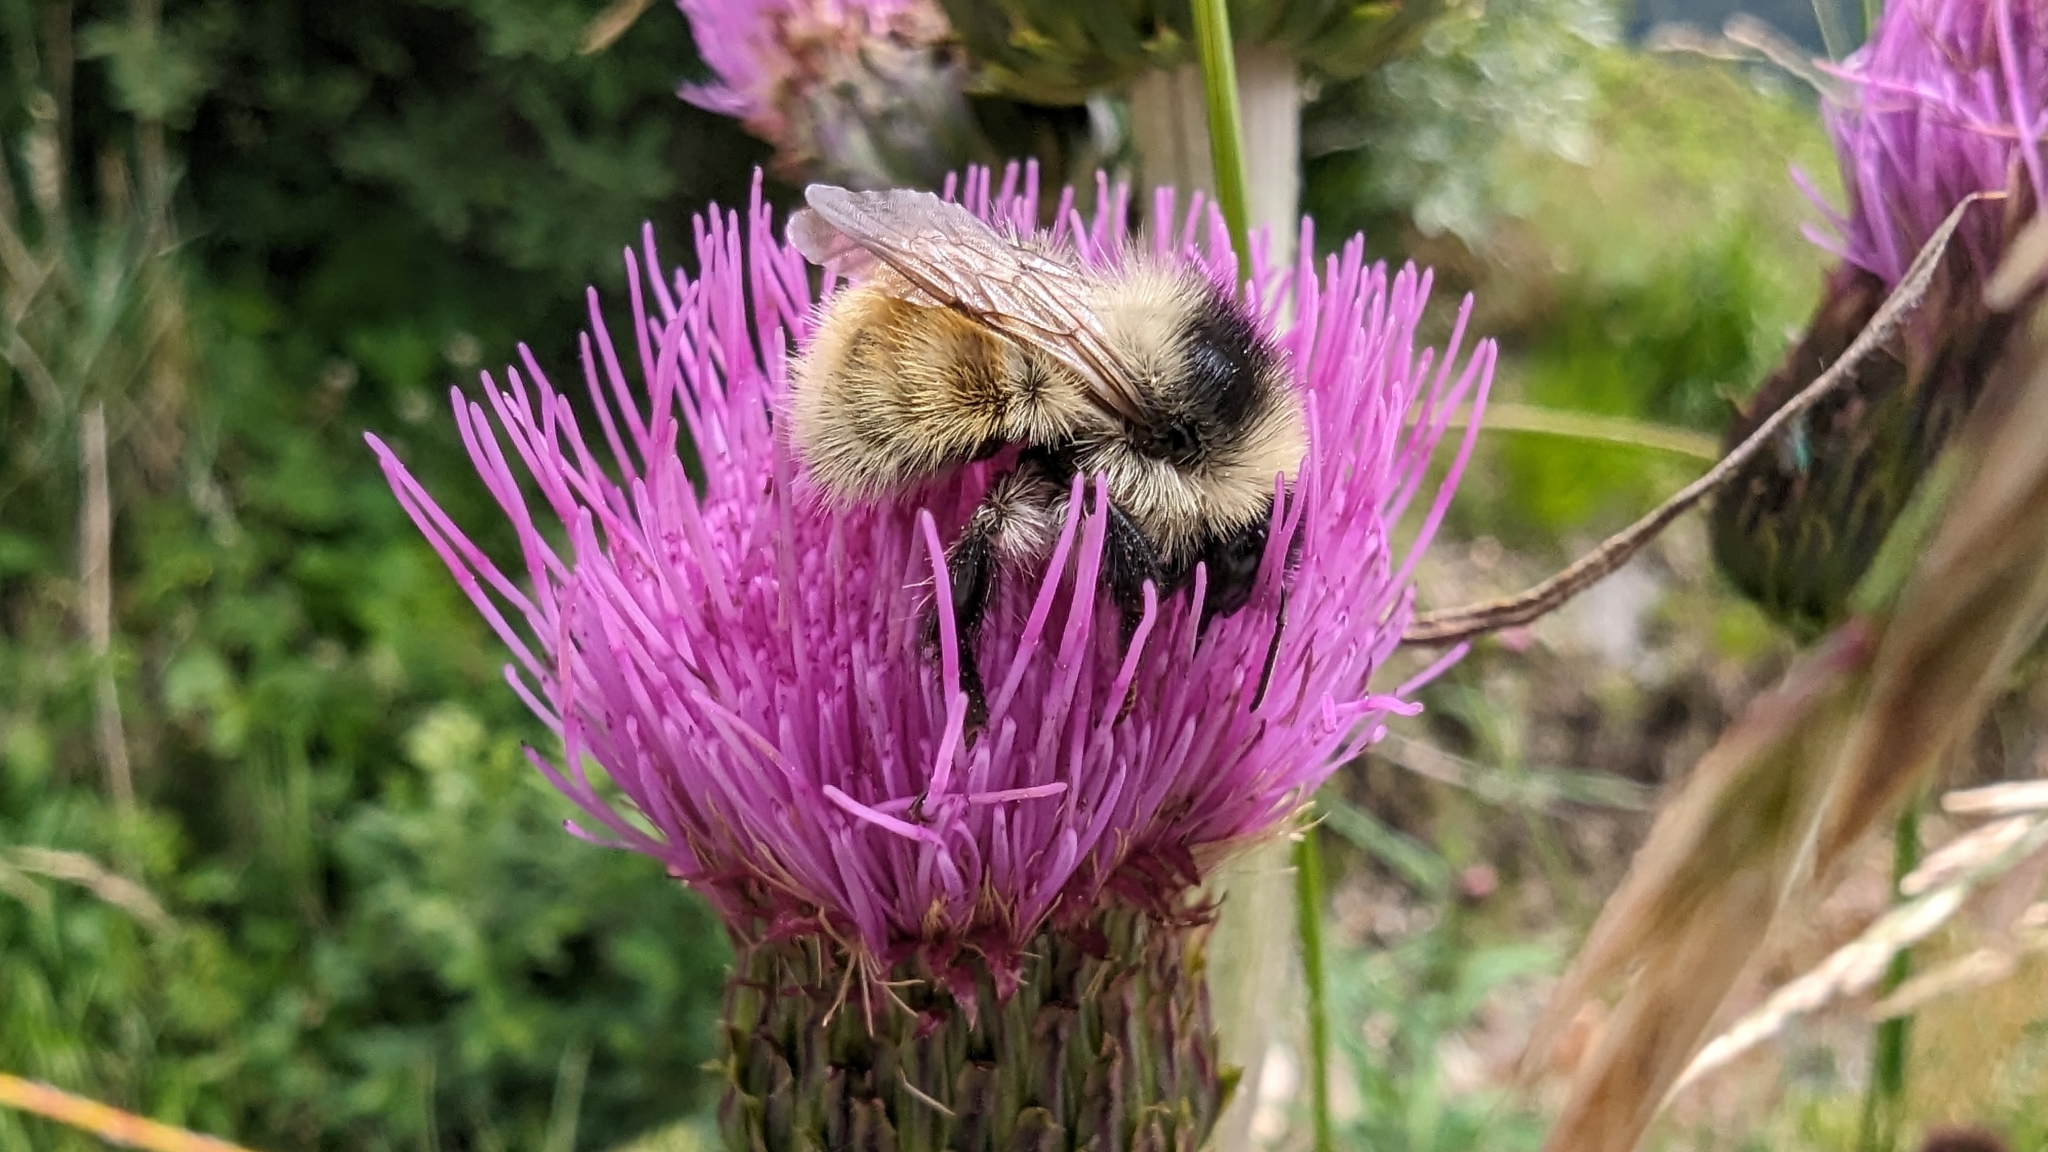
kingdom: Animalia
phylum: Arthropoda
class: Insecta
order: Hymenoptera
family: Apidae
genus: Bombus
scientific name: Bombus mesomelas
